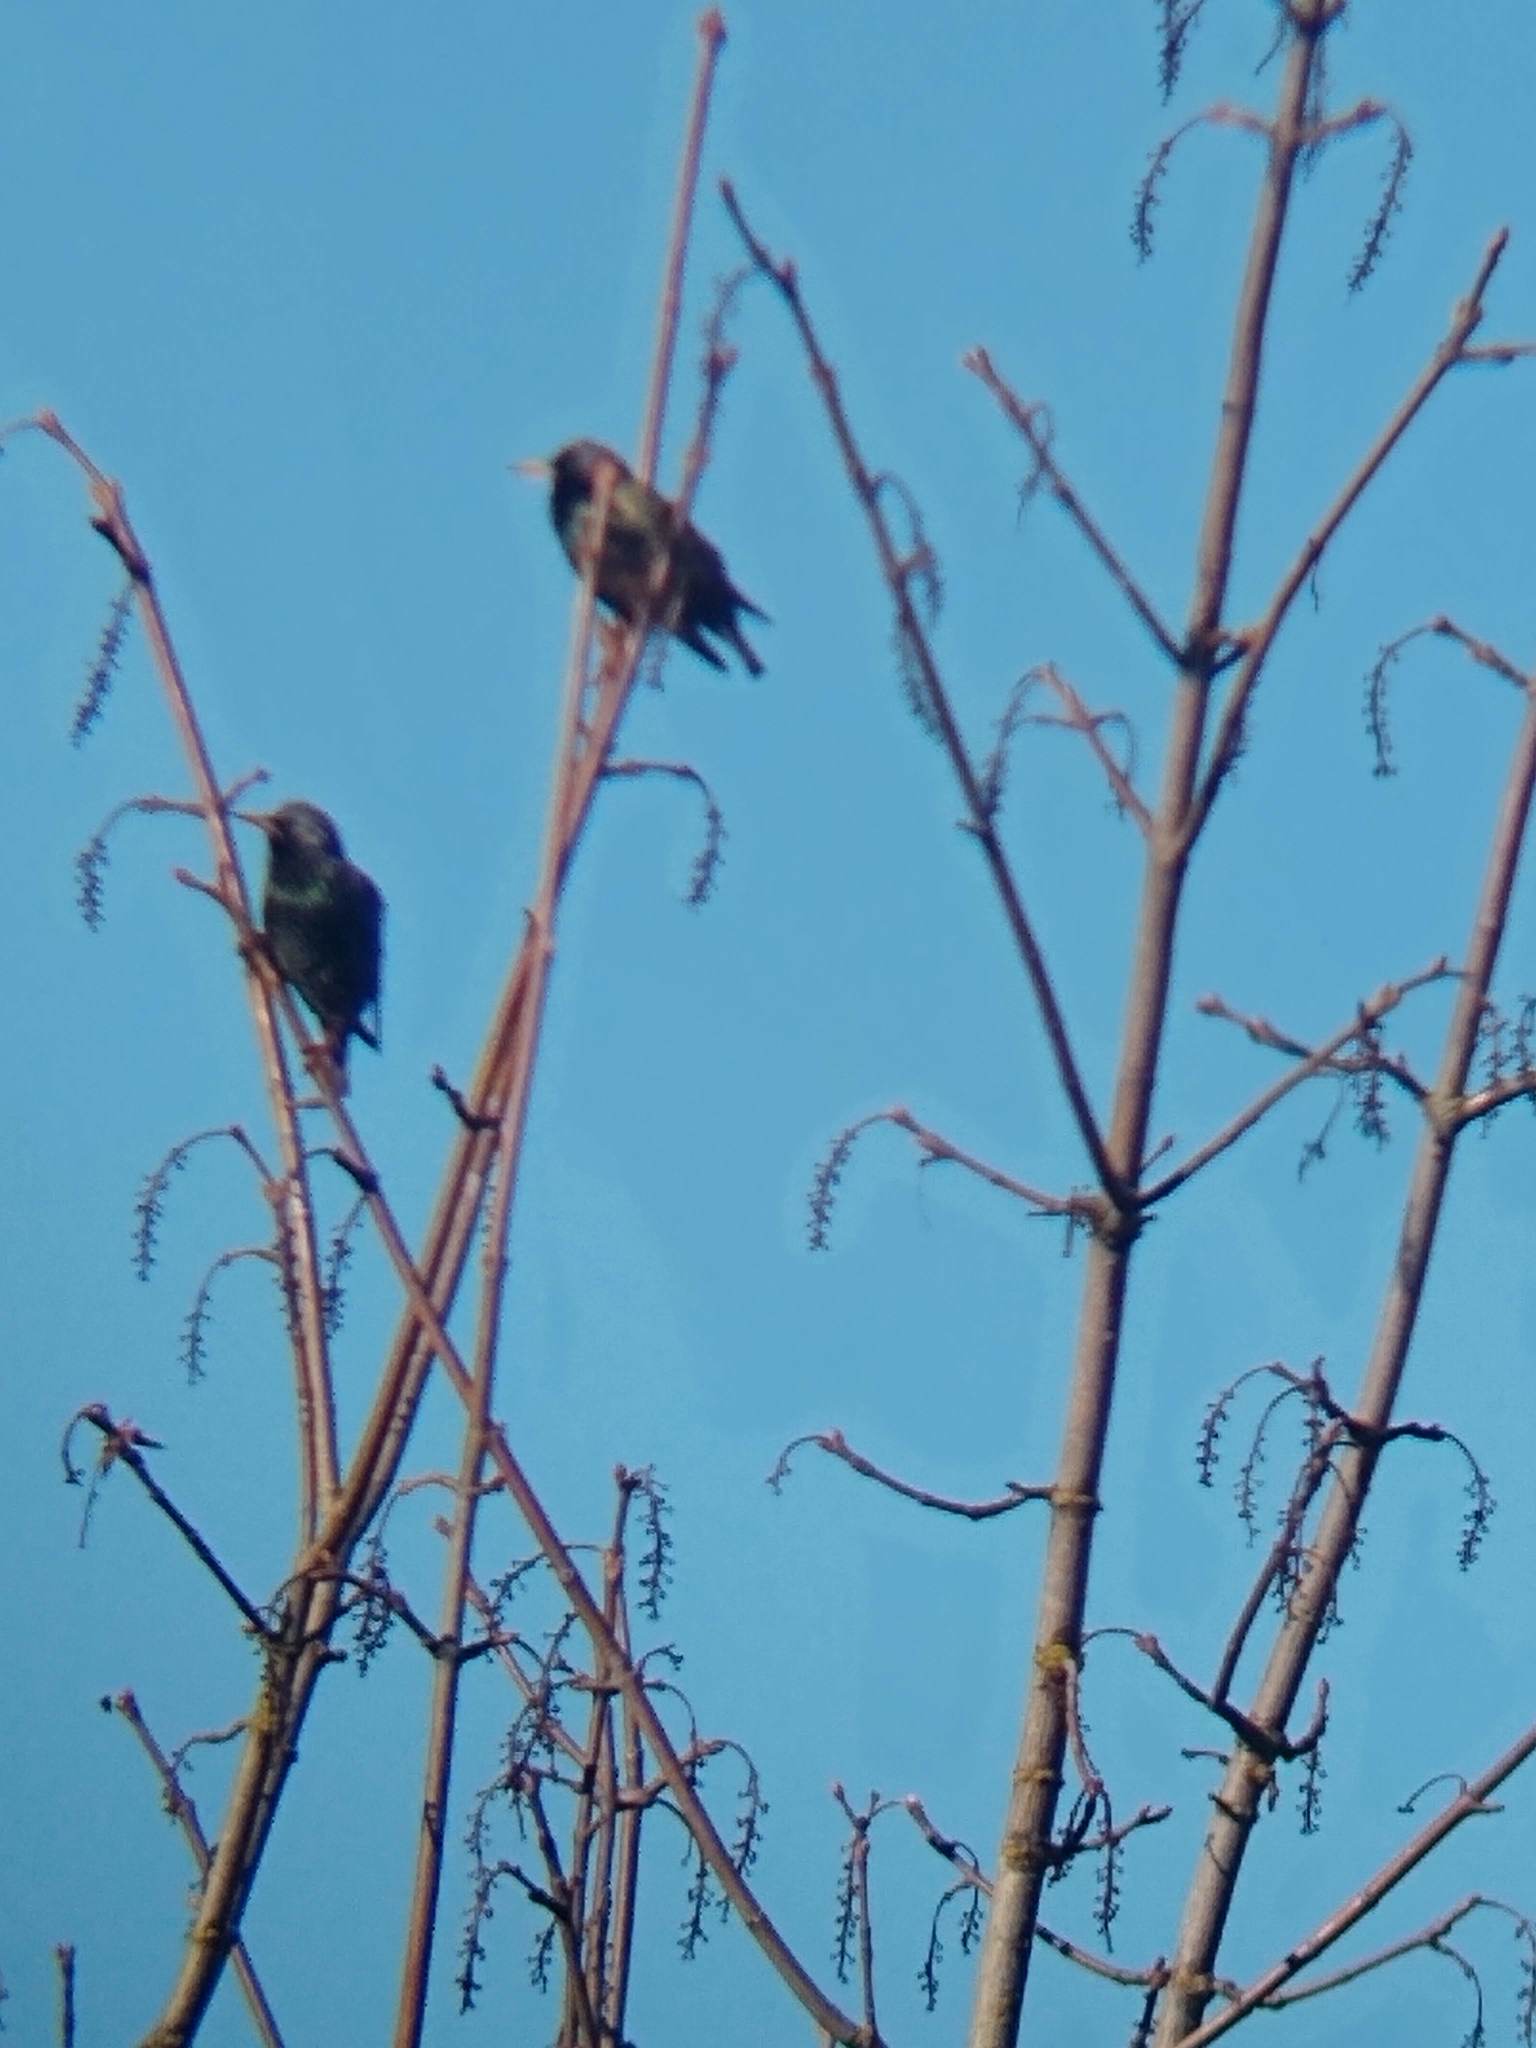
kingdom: Animalia
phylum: Chordata
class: Aves
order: Passeriformes
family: Sturnidae
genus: Sturnus
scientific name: Sturnus vulgaris
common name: Common starling
